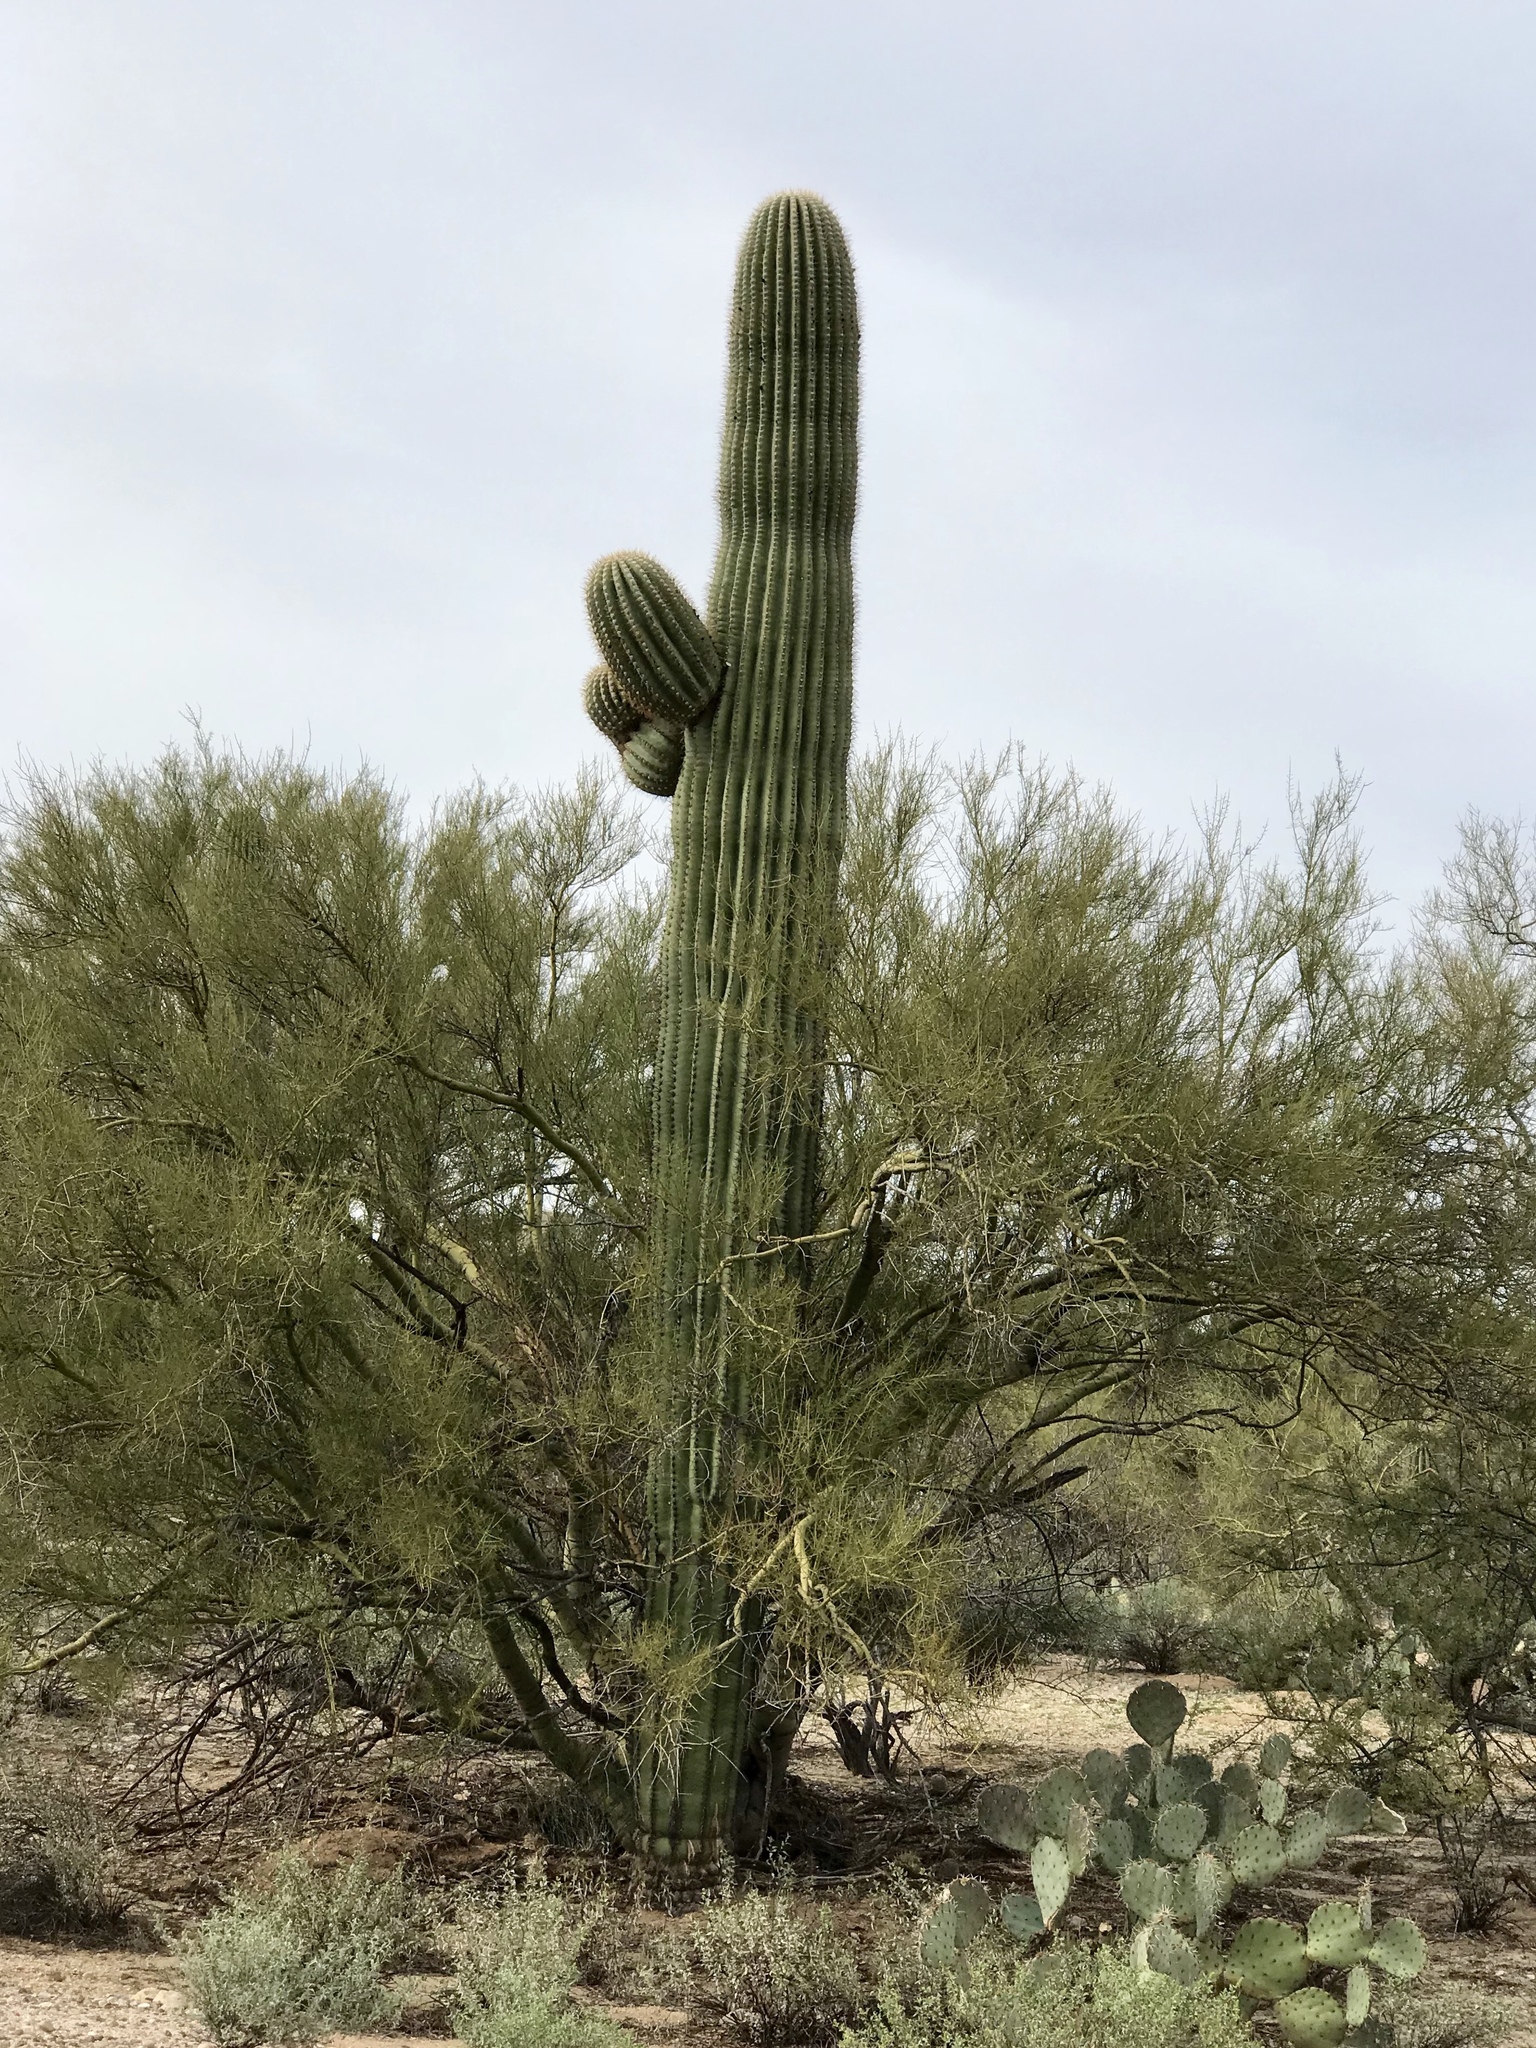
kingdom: Plantae
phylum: Tracheophyta
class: Magnoliopsida
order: Caryophyllales
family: Cactaceae
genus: Carnegiea
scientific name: Carnegiea gigantea
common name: Saguaro
